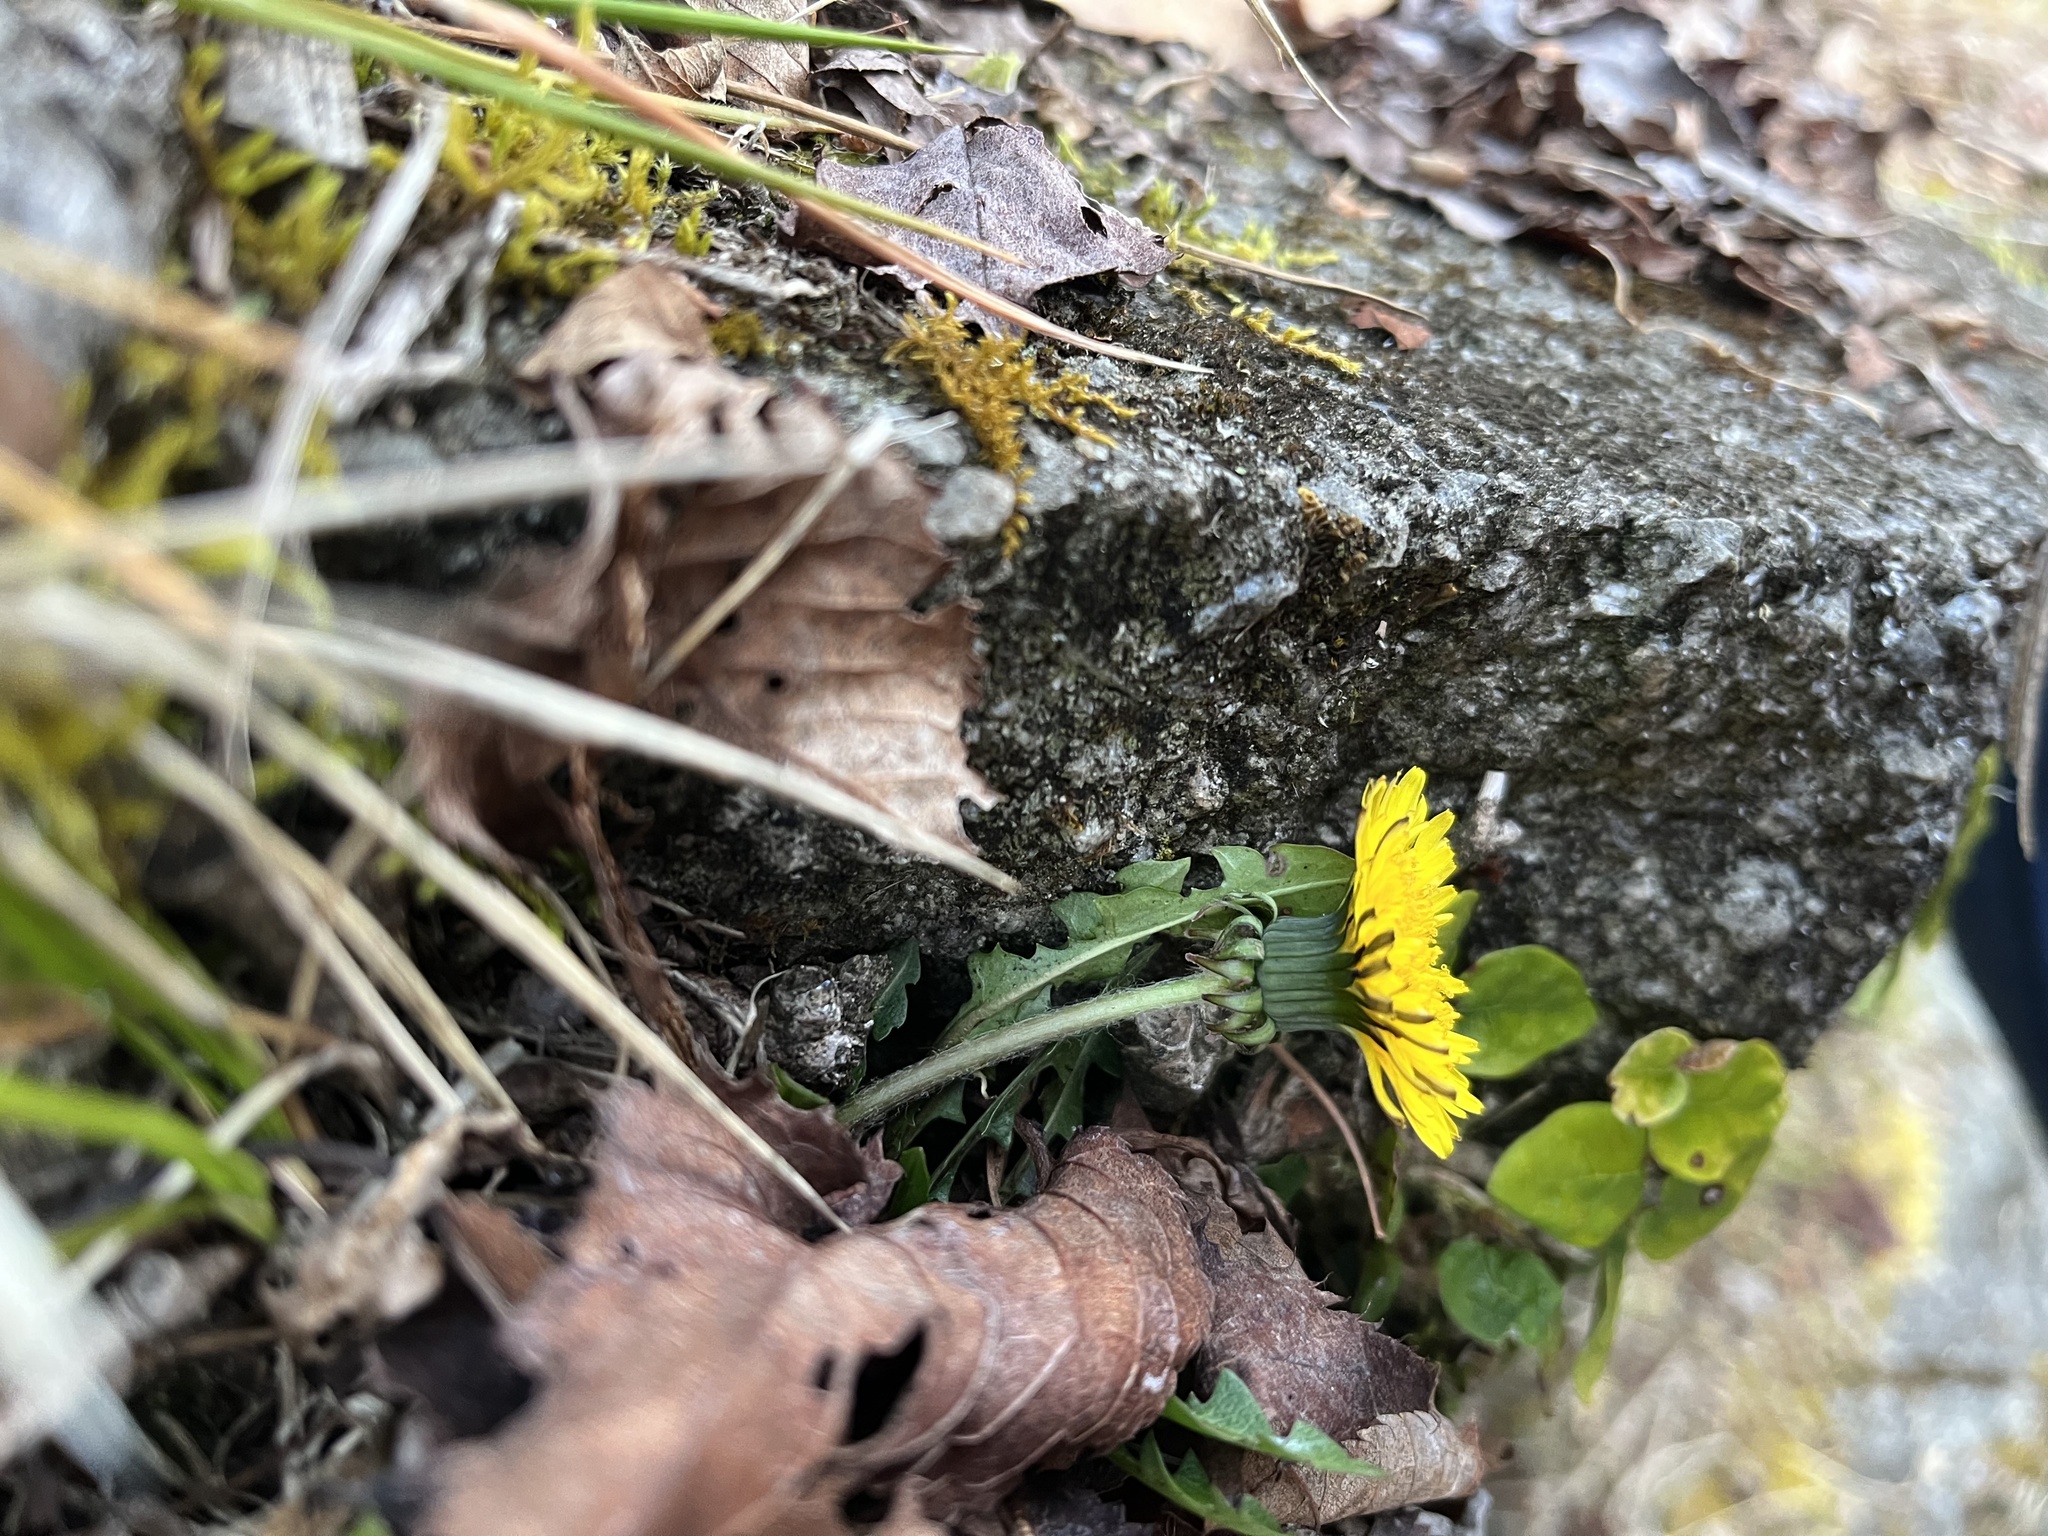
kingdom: Plantae
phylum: Tracheophyta
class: Magnoliopsida
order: Asterales
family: Asteraceae
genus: Taraxacum
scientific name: Taraxacum officinale
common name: Common dandelion
